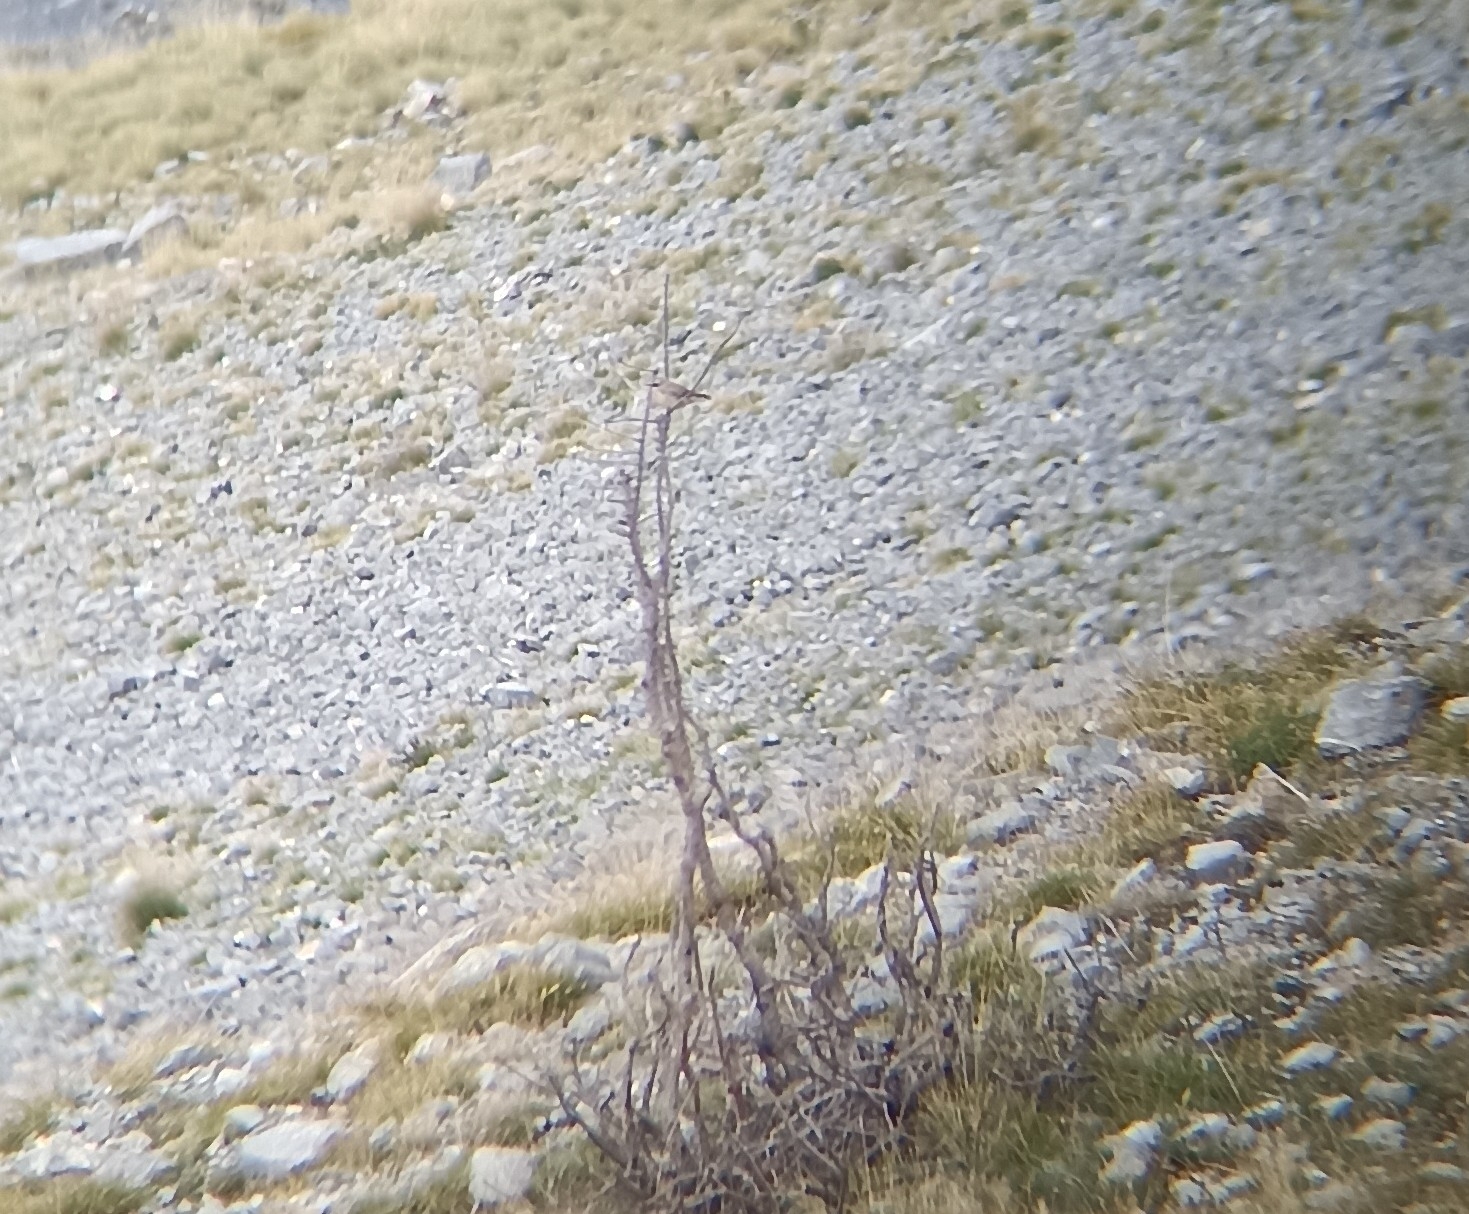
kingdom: Animalia
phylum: Chordata
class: Aves
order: Passeriformes
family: Muscicapidae
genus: Oenanthe
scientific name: Oenanthe oenanthe
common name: Northern wheatear
